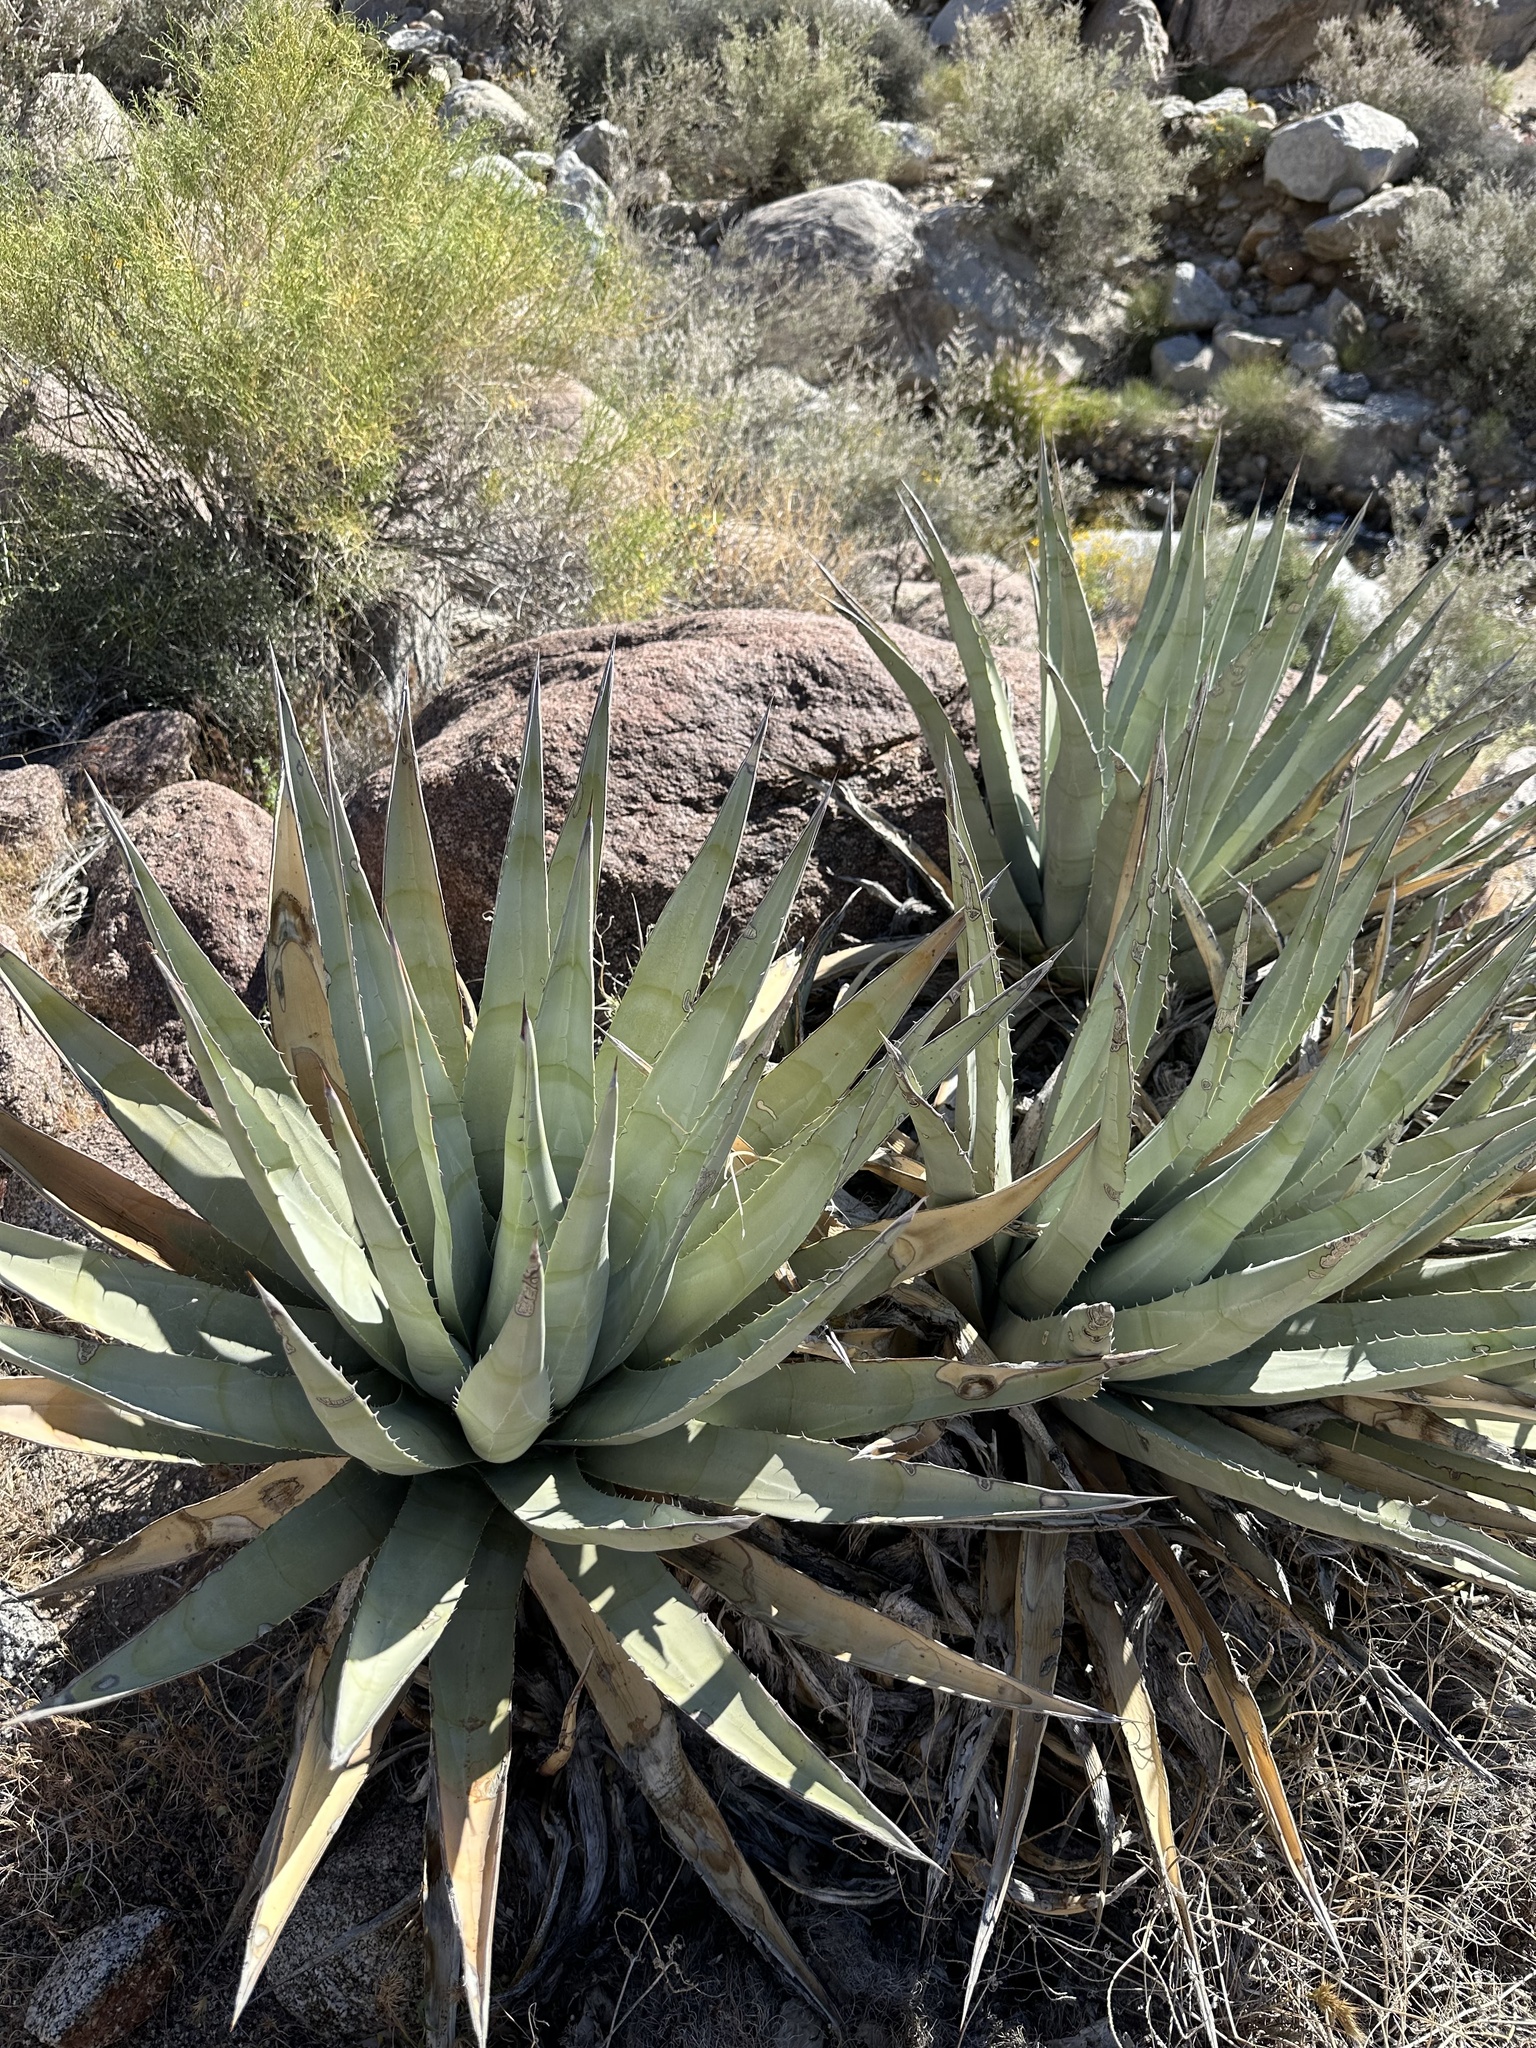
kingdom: Plantae
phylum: Tracheophyta
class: Liliopsida
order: Asparagales
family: Asparagaceae
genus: Agave
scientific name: Agave deserti
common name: Desert agave
